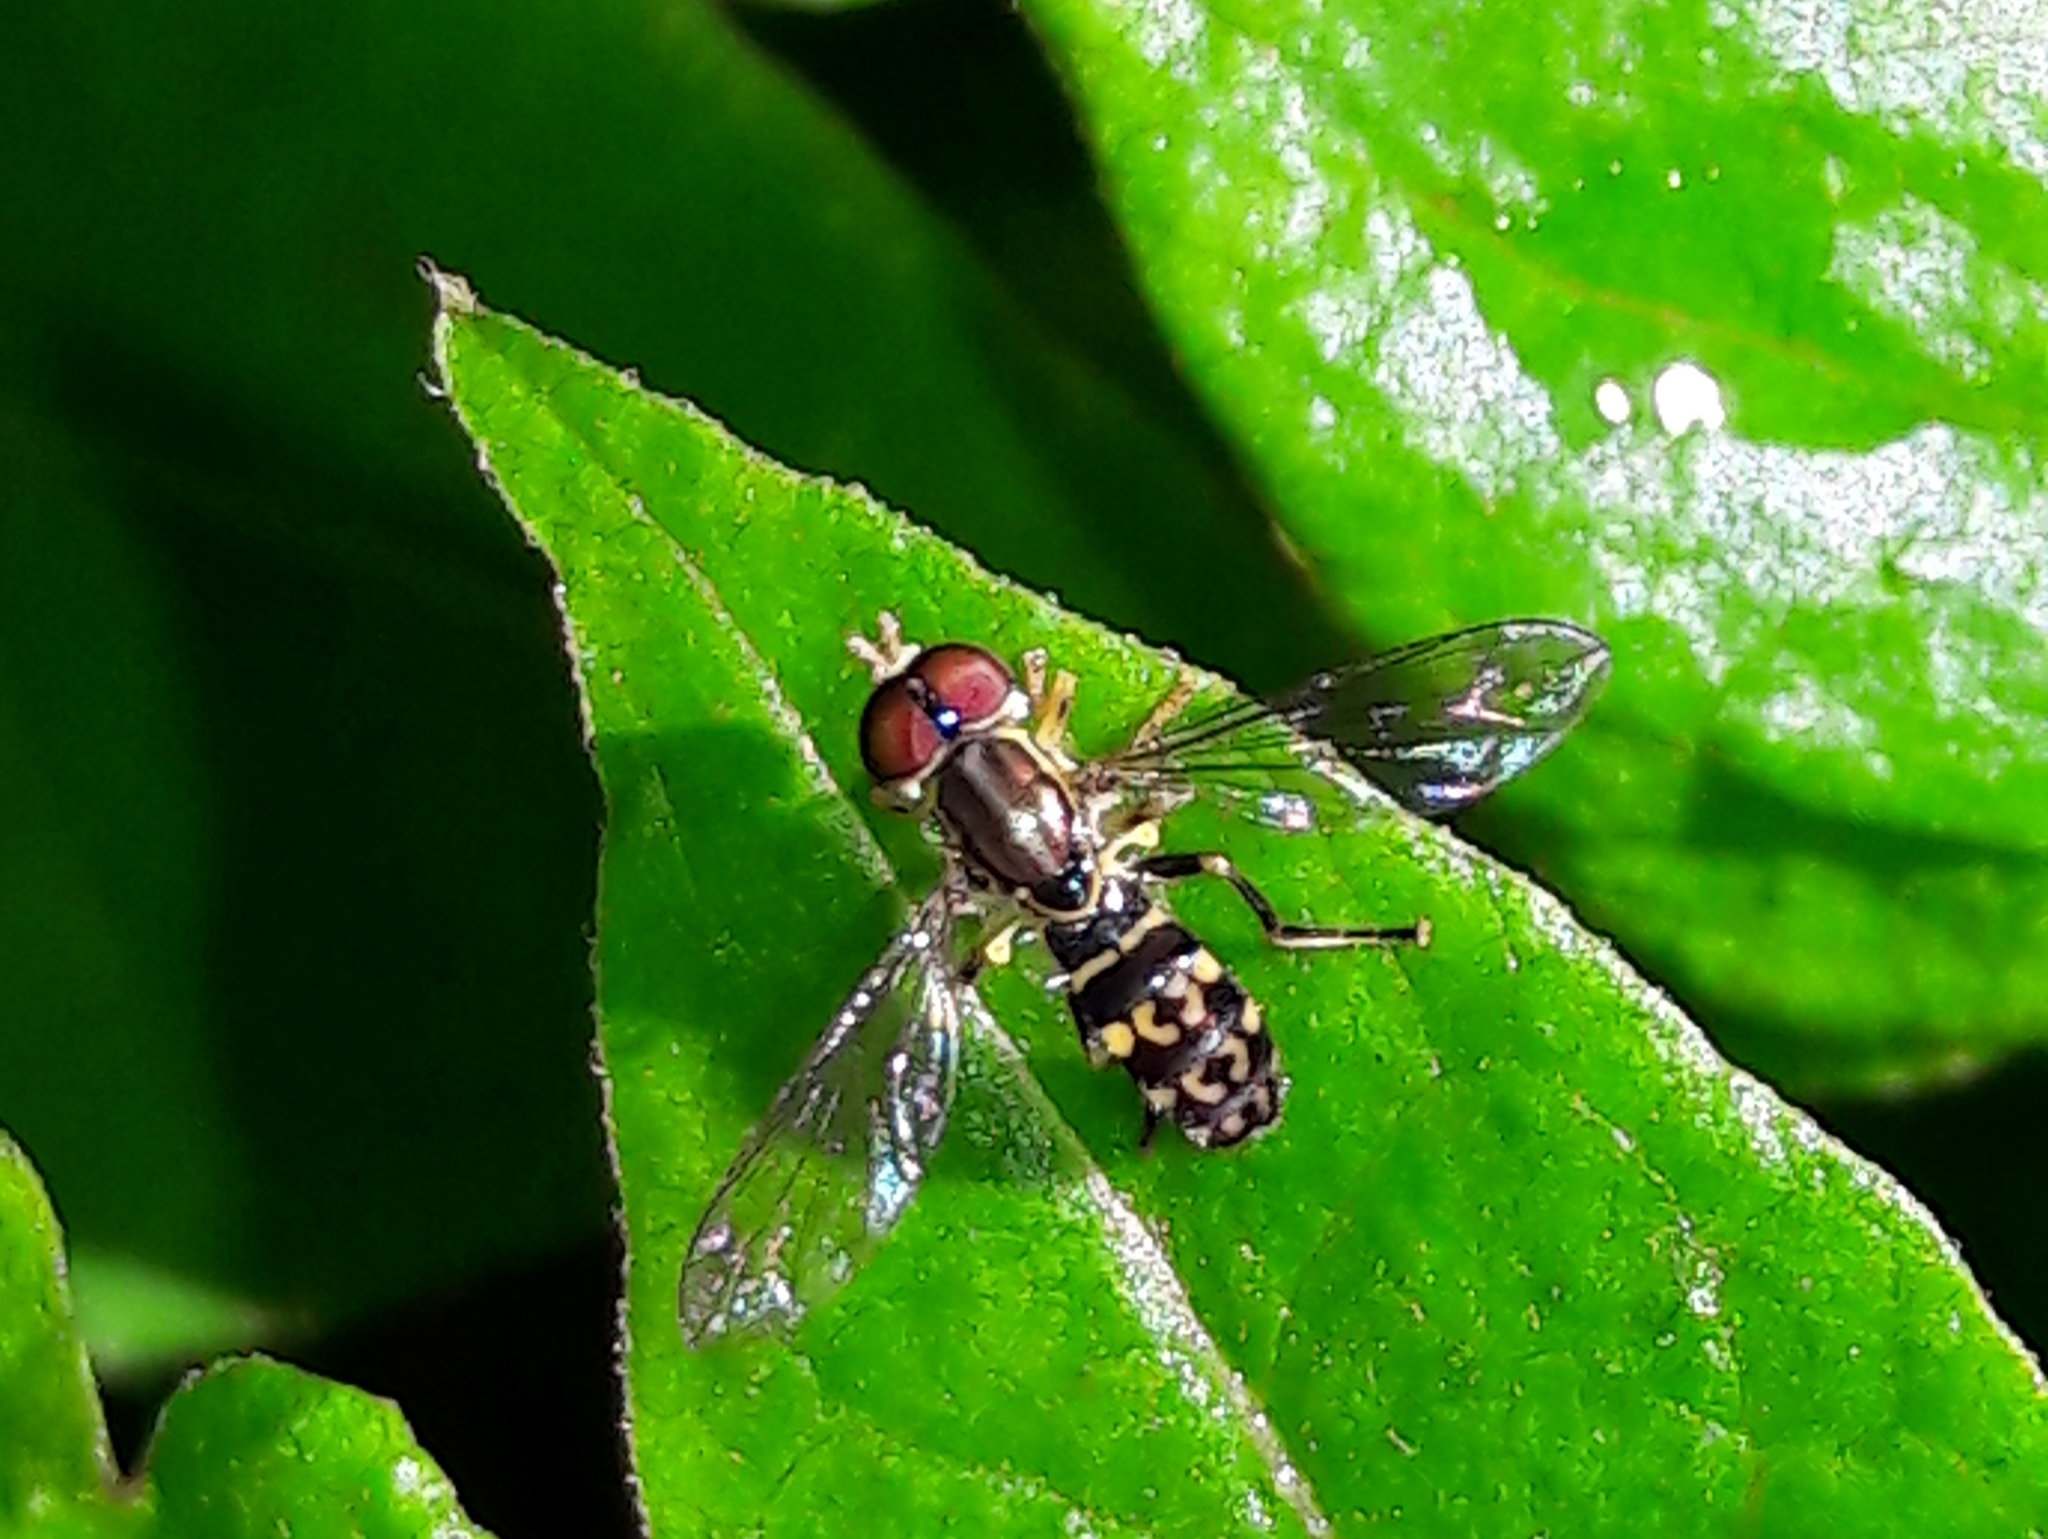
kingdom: Animalia
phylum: Arthropoda
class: Insecta
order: Diptera
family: Syrphidae
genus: Toxomerus
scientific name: Toxomerus virgulatus
